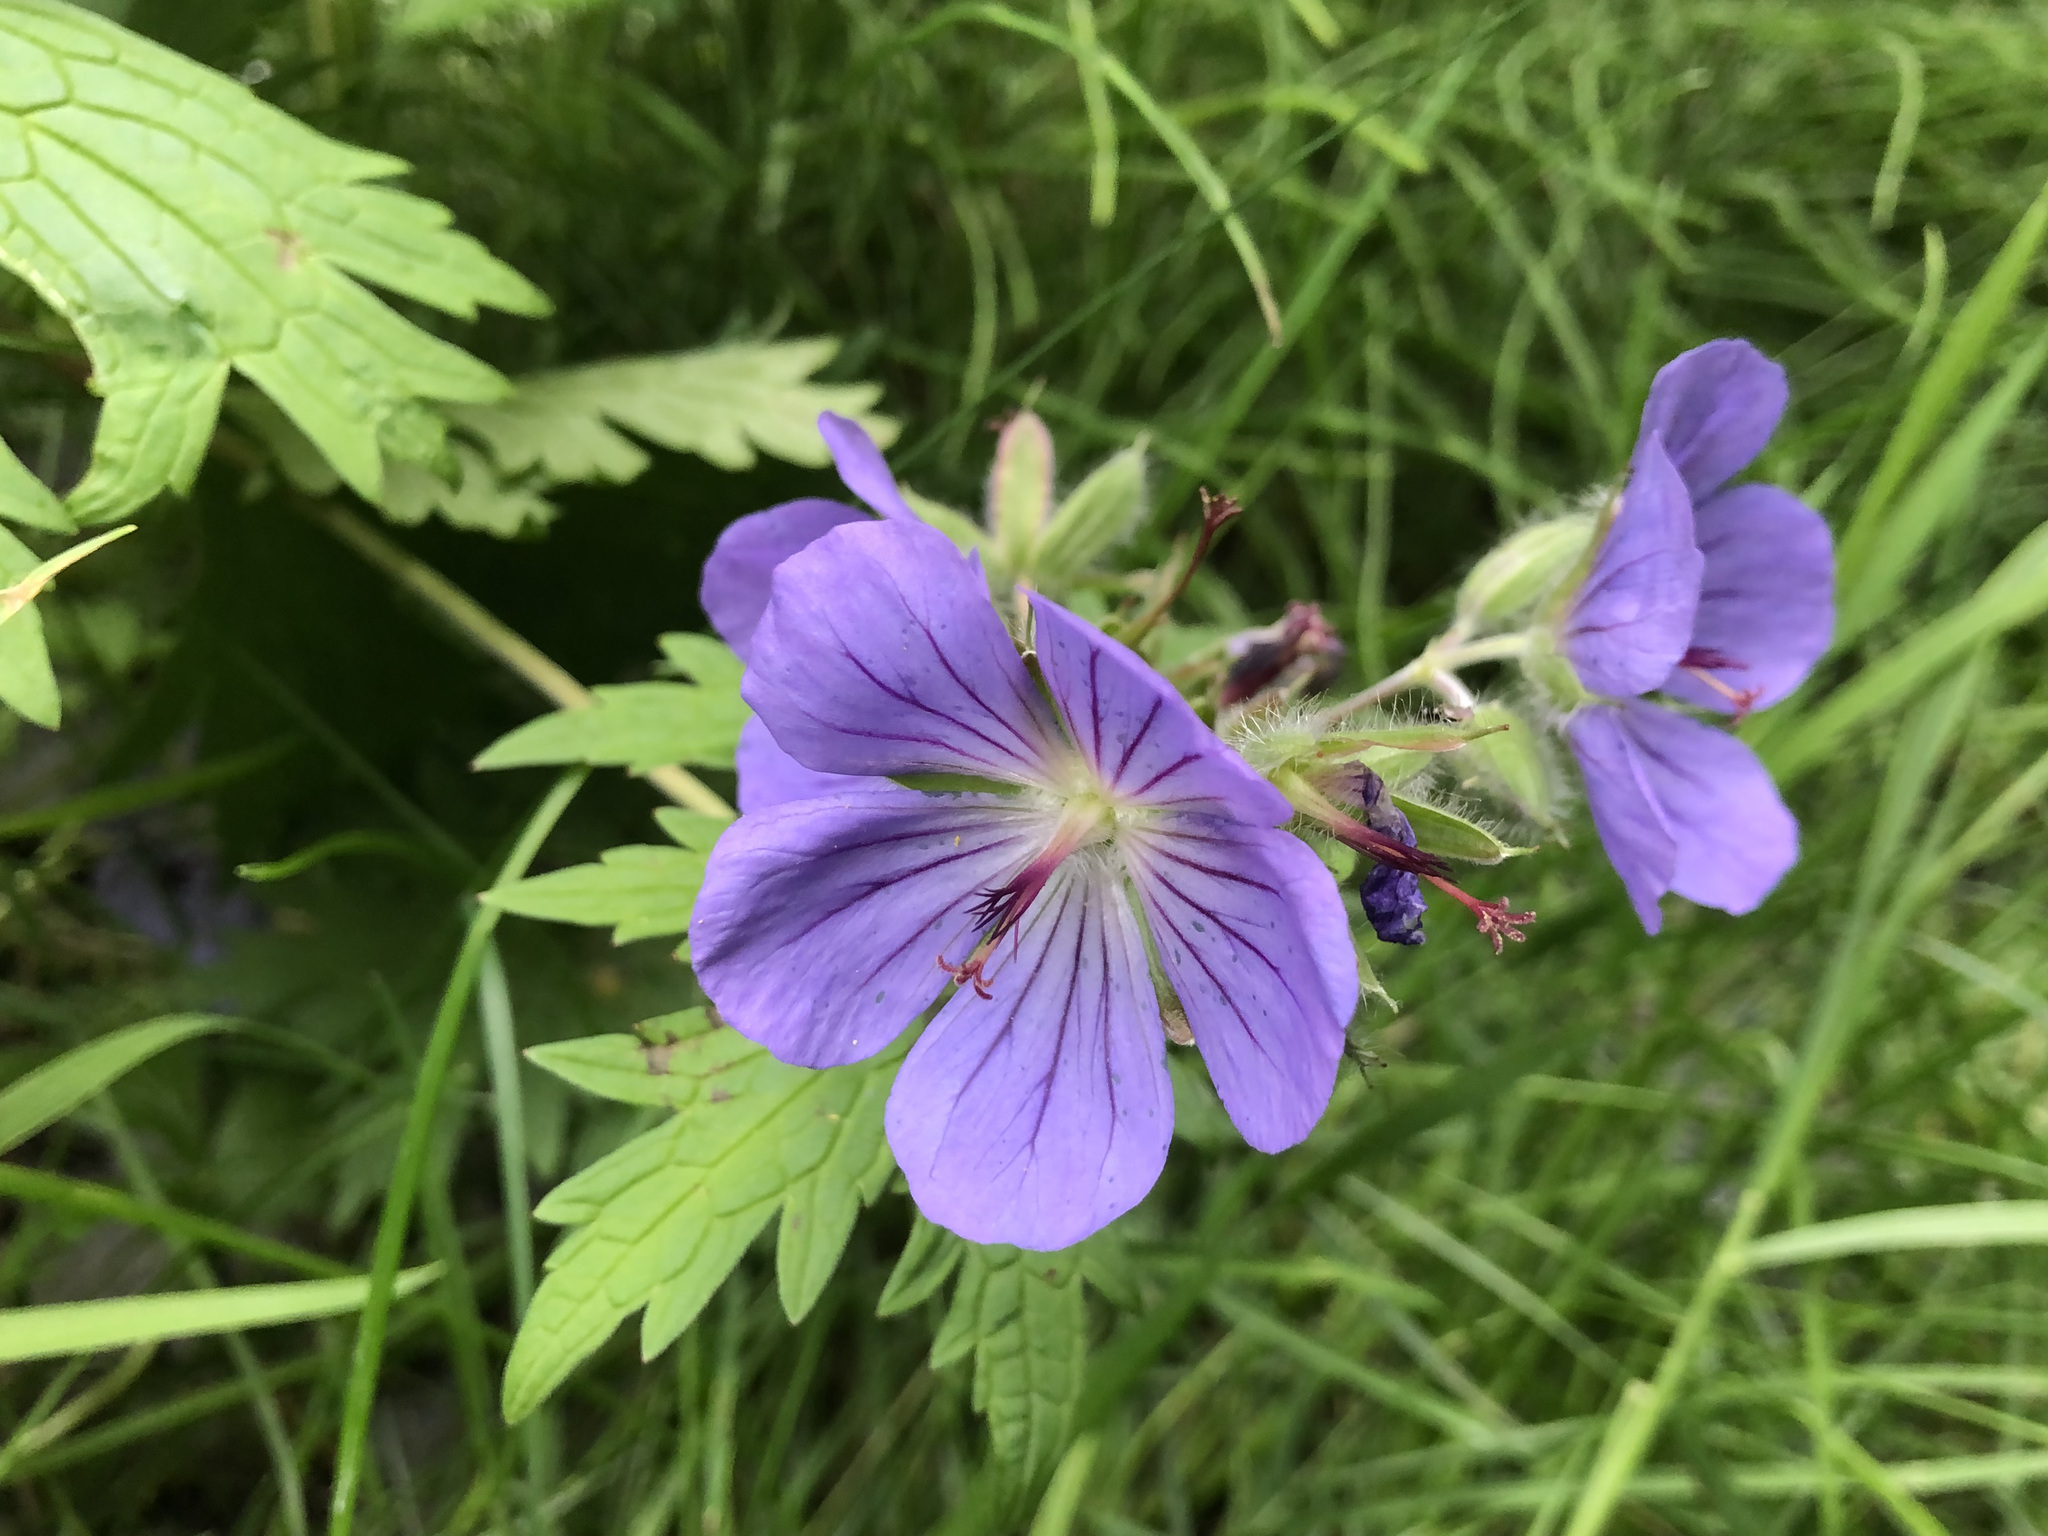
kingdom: Plantae
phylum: Tracheophyta
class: Magnoliopsida
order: Geraniales
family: Geraniaceae
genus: Geranium
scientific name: Geranium erianthum
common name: Northern crane's-bill
